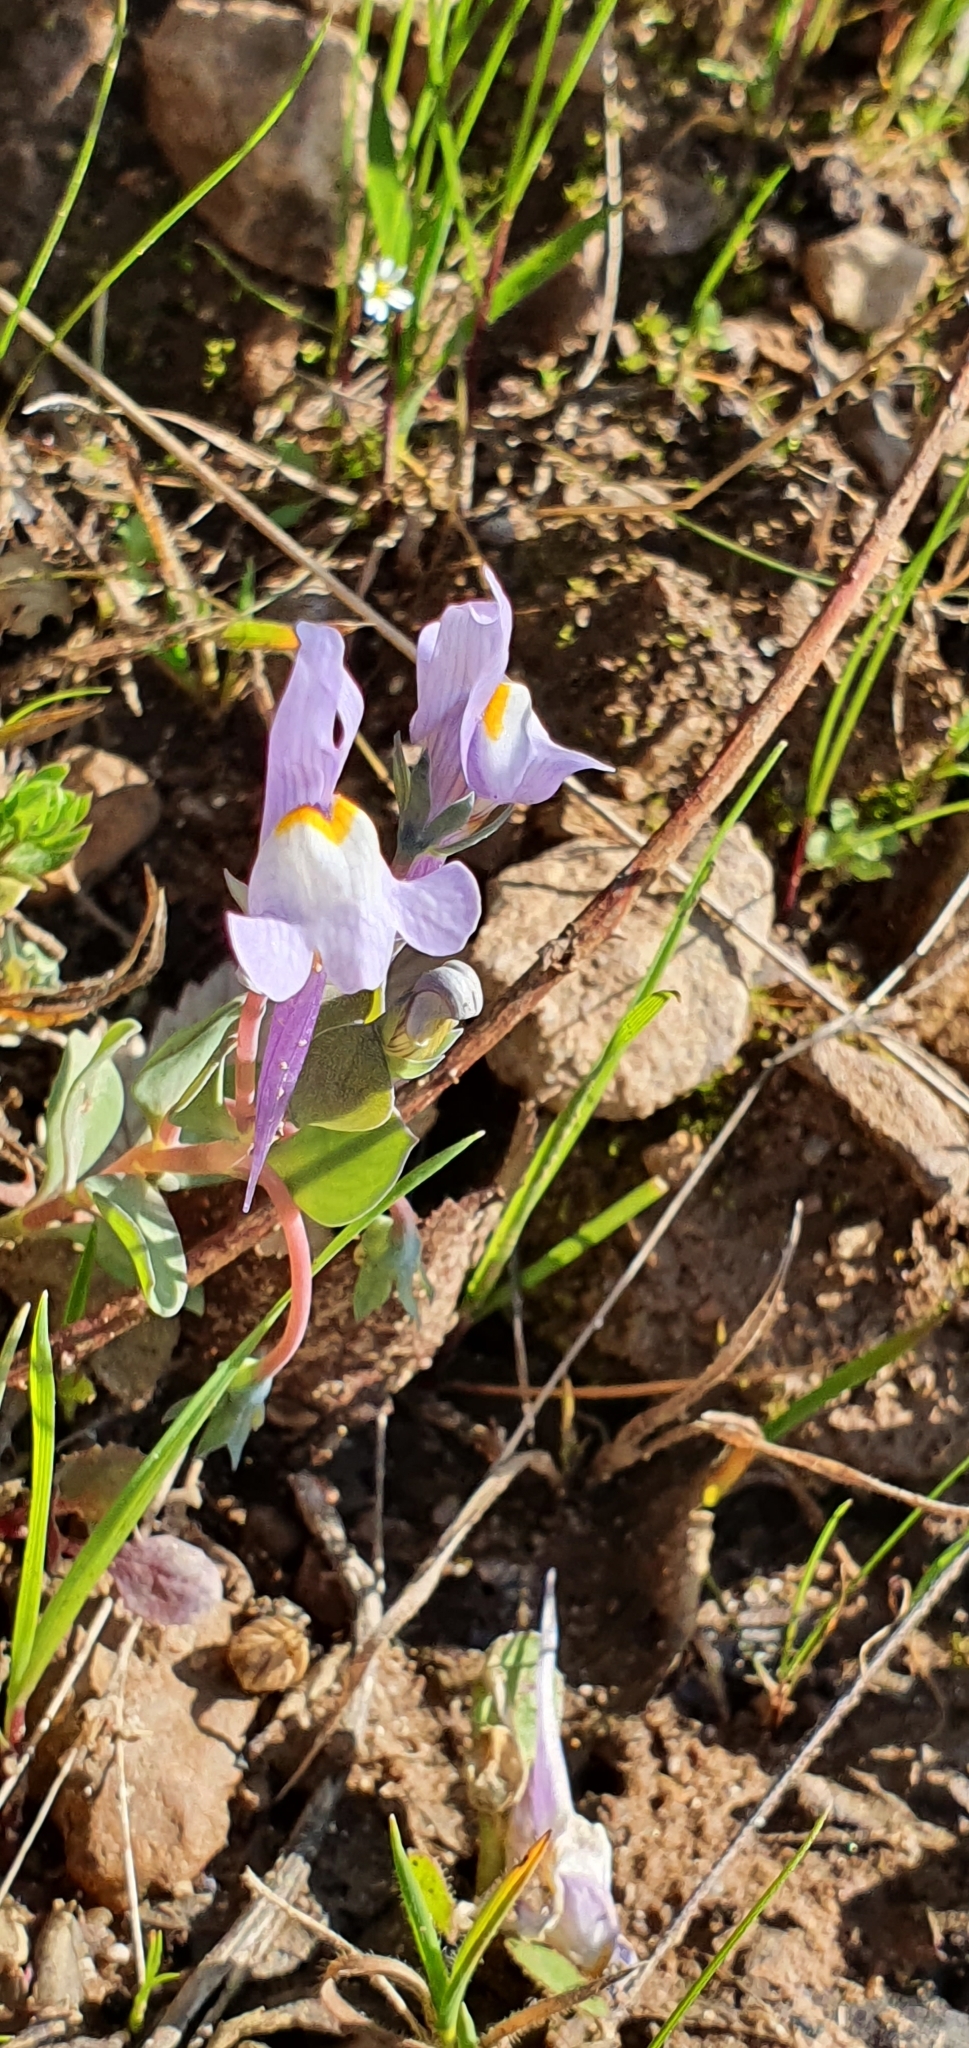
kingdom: Plantae
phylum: Tracheophyta
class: Magnoliopsida
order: Lamiales
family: Plantaginaceae
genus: Linaria
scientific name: Linaria reflexa
